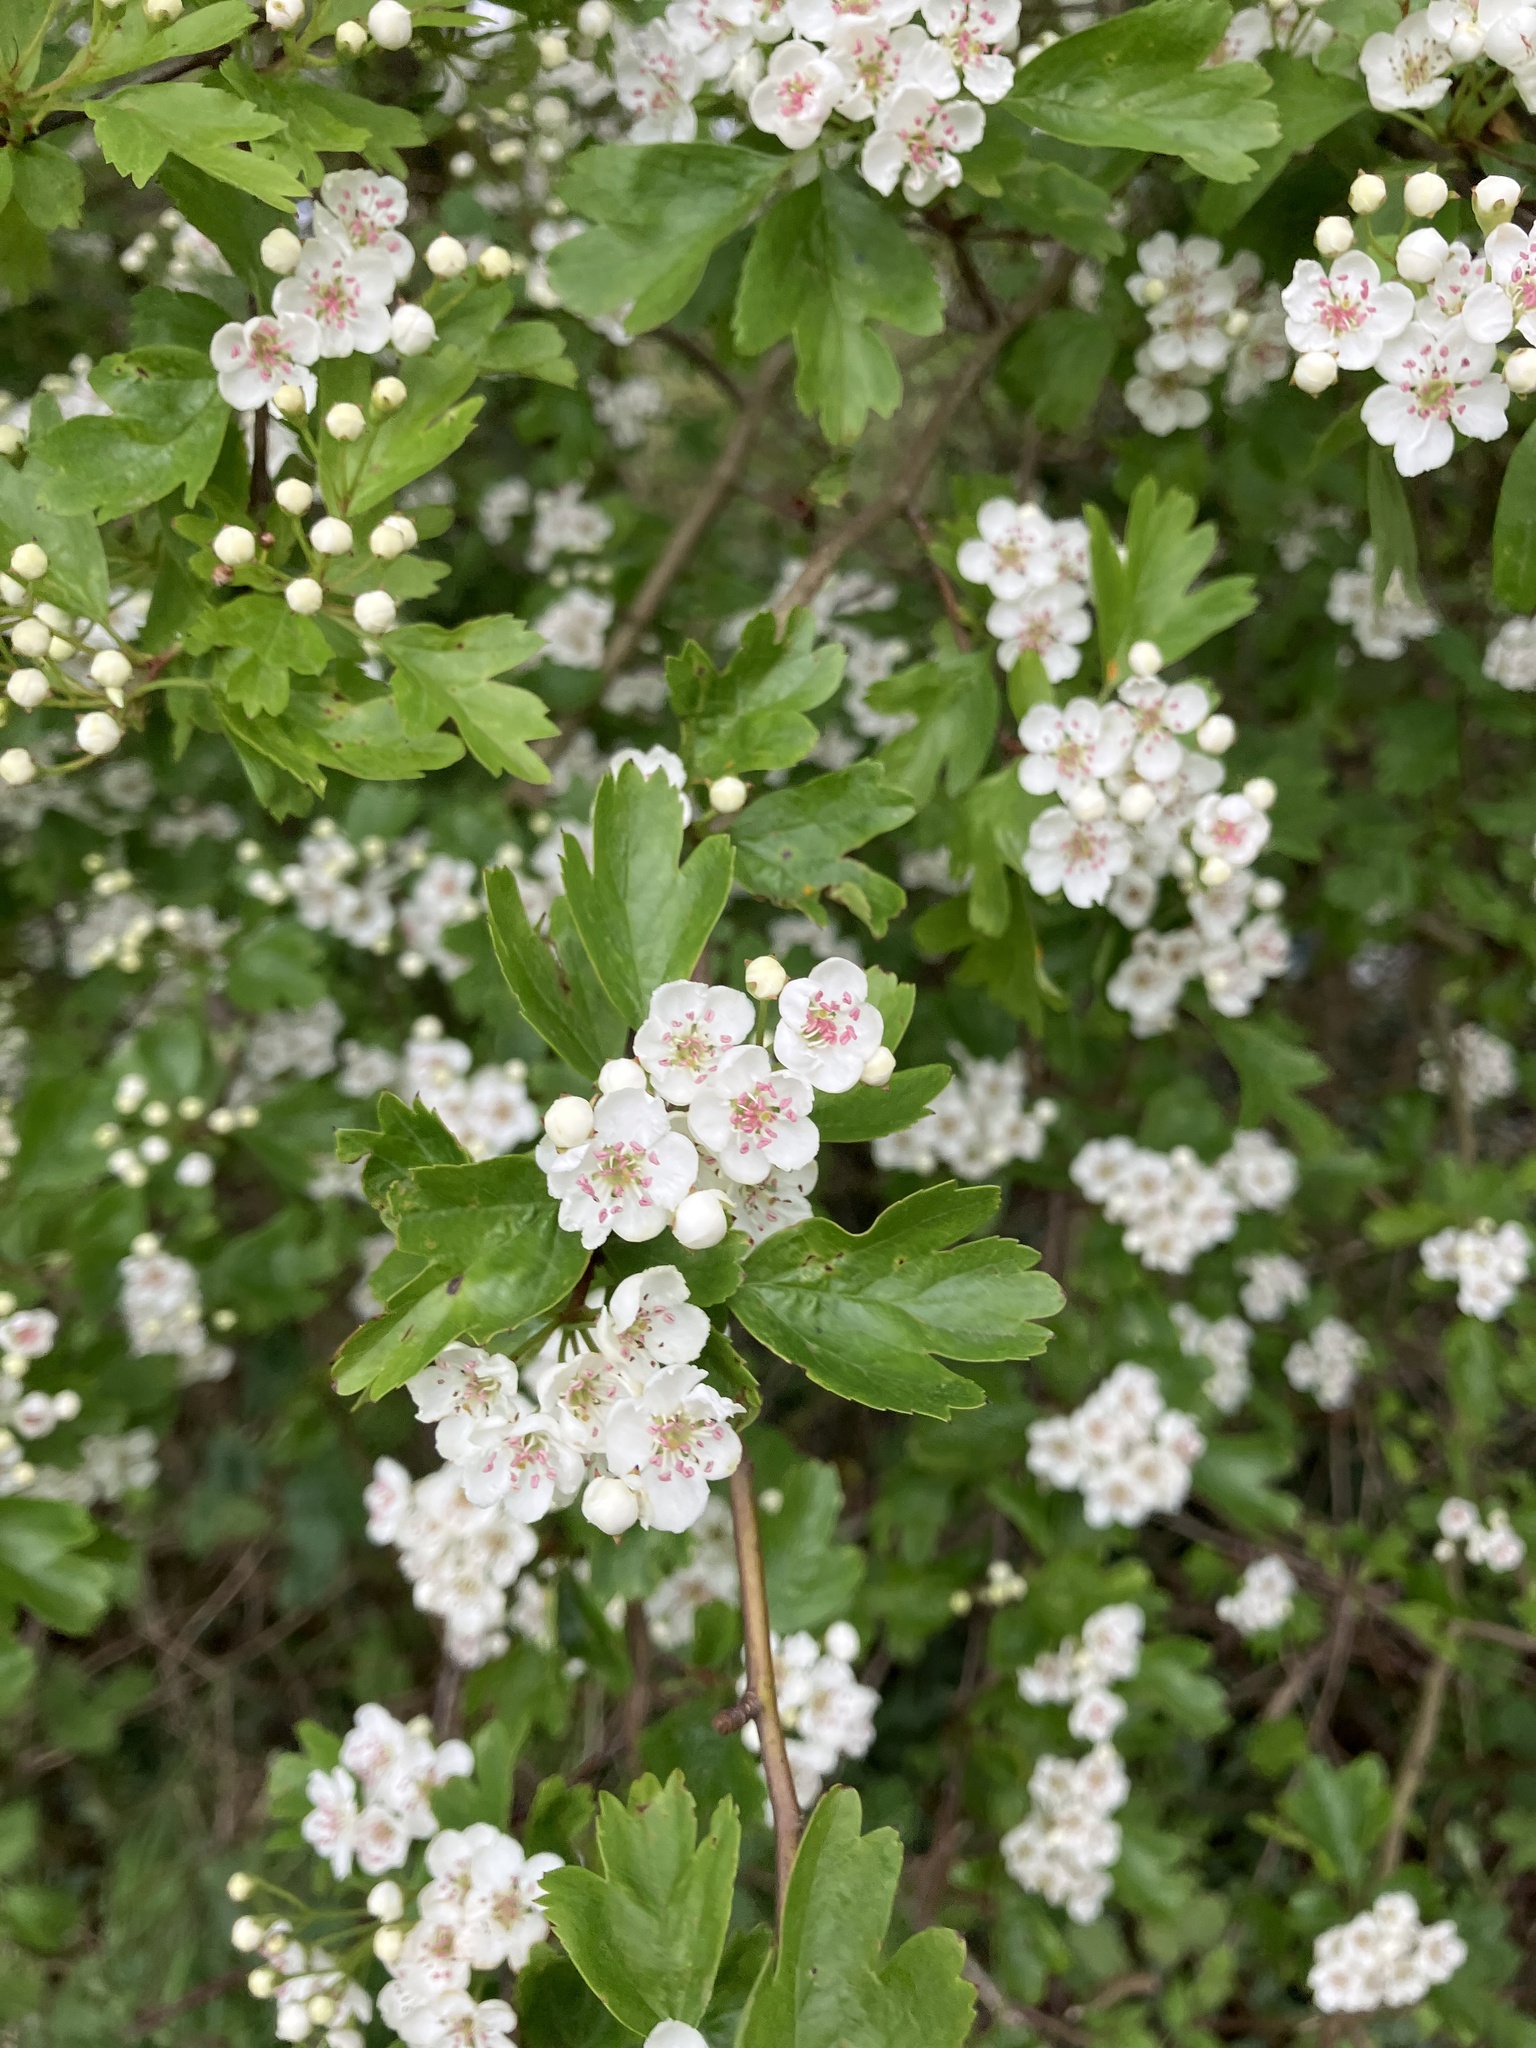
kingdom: Plantae
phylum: Tracheophyta
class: Magnoliopsida
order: Rosales
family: Rosaceae
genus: Crataegus
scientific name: Crataegus monogyna
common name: Hawthorn
